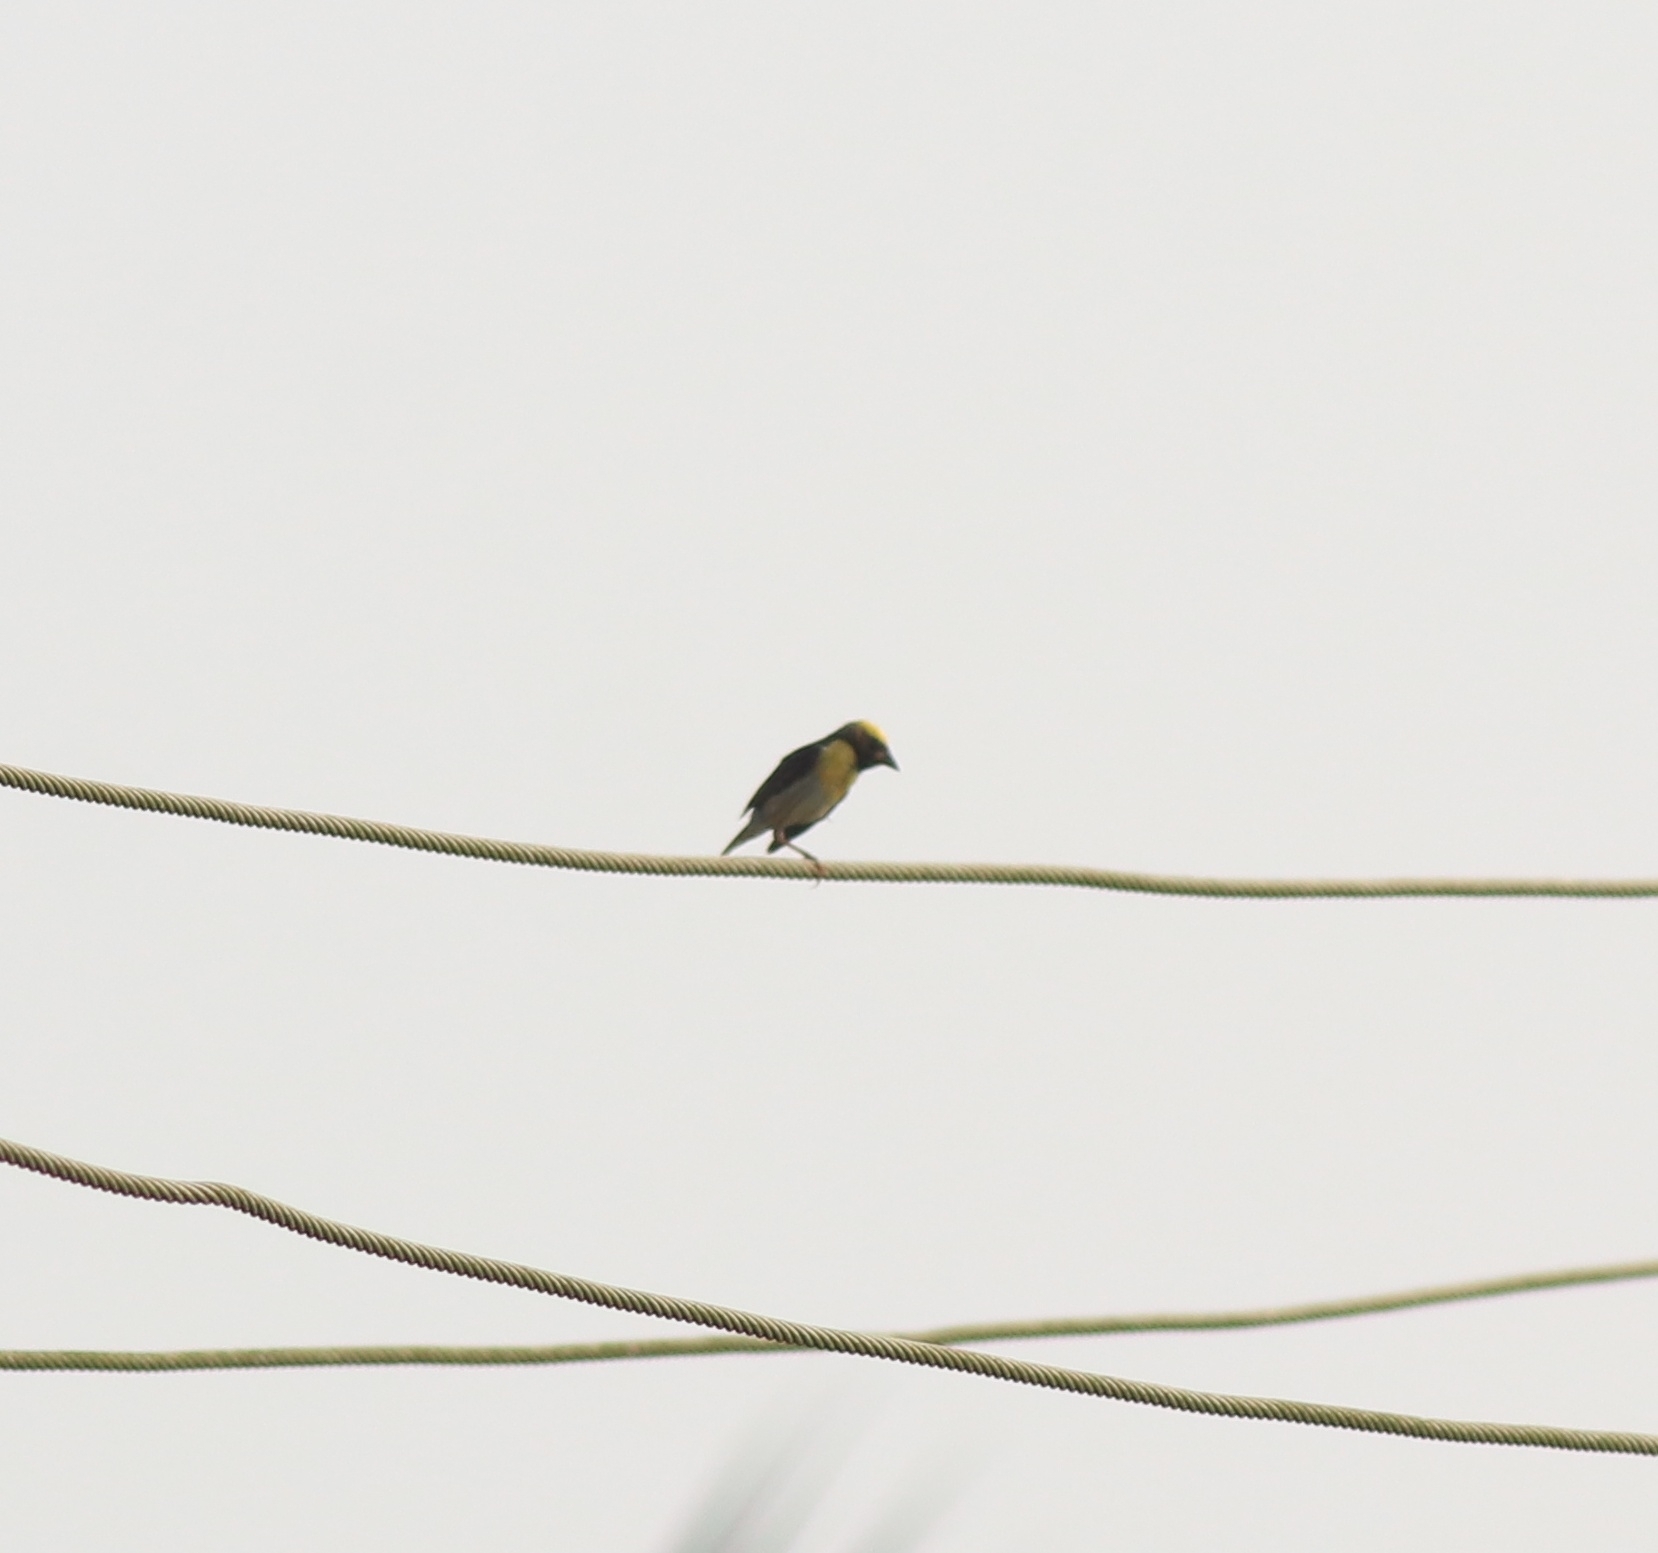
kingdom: Animalia
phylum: Chordata
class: Aves
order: Passeriformes
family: Ploceidae
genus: Ploceus
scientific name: Ploceus philippinus
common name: Baya weaver
